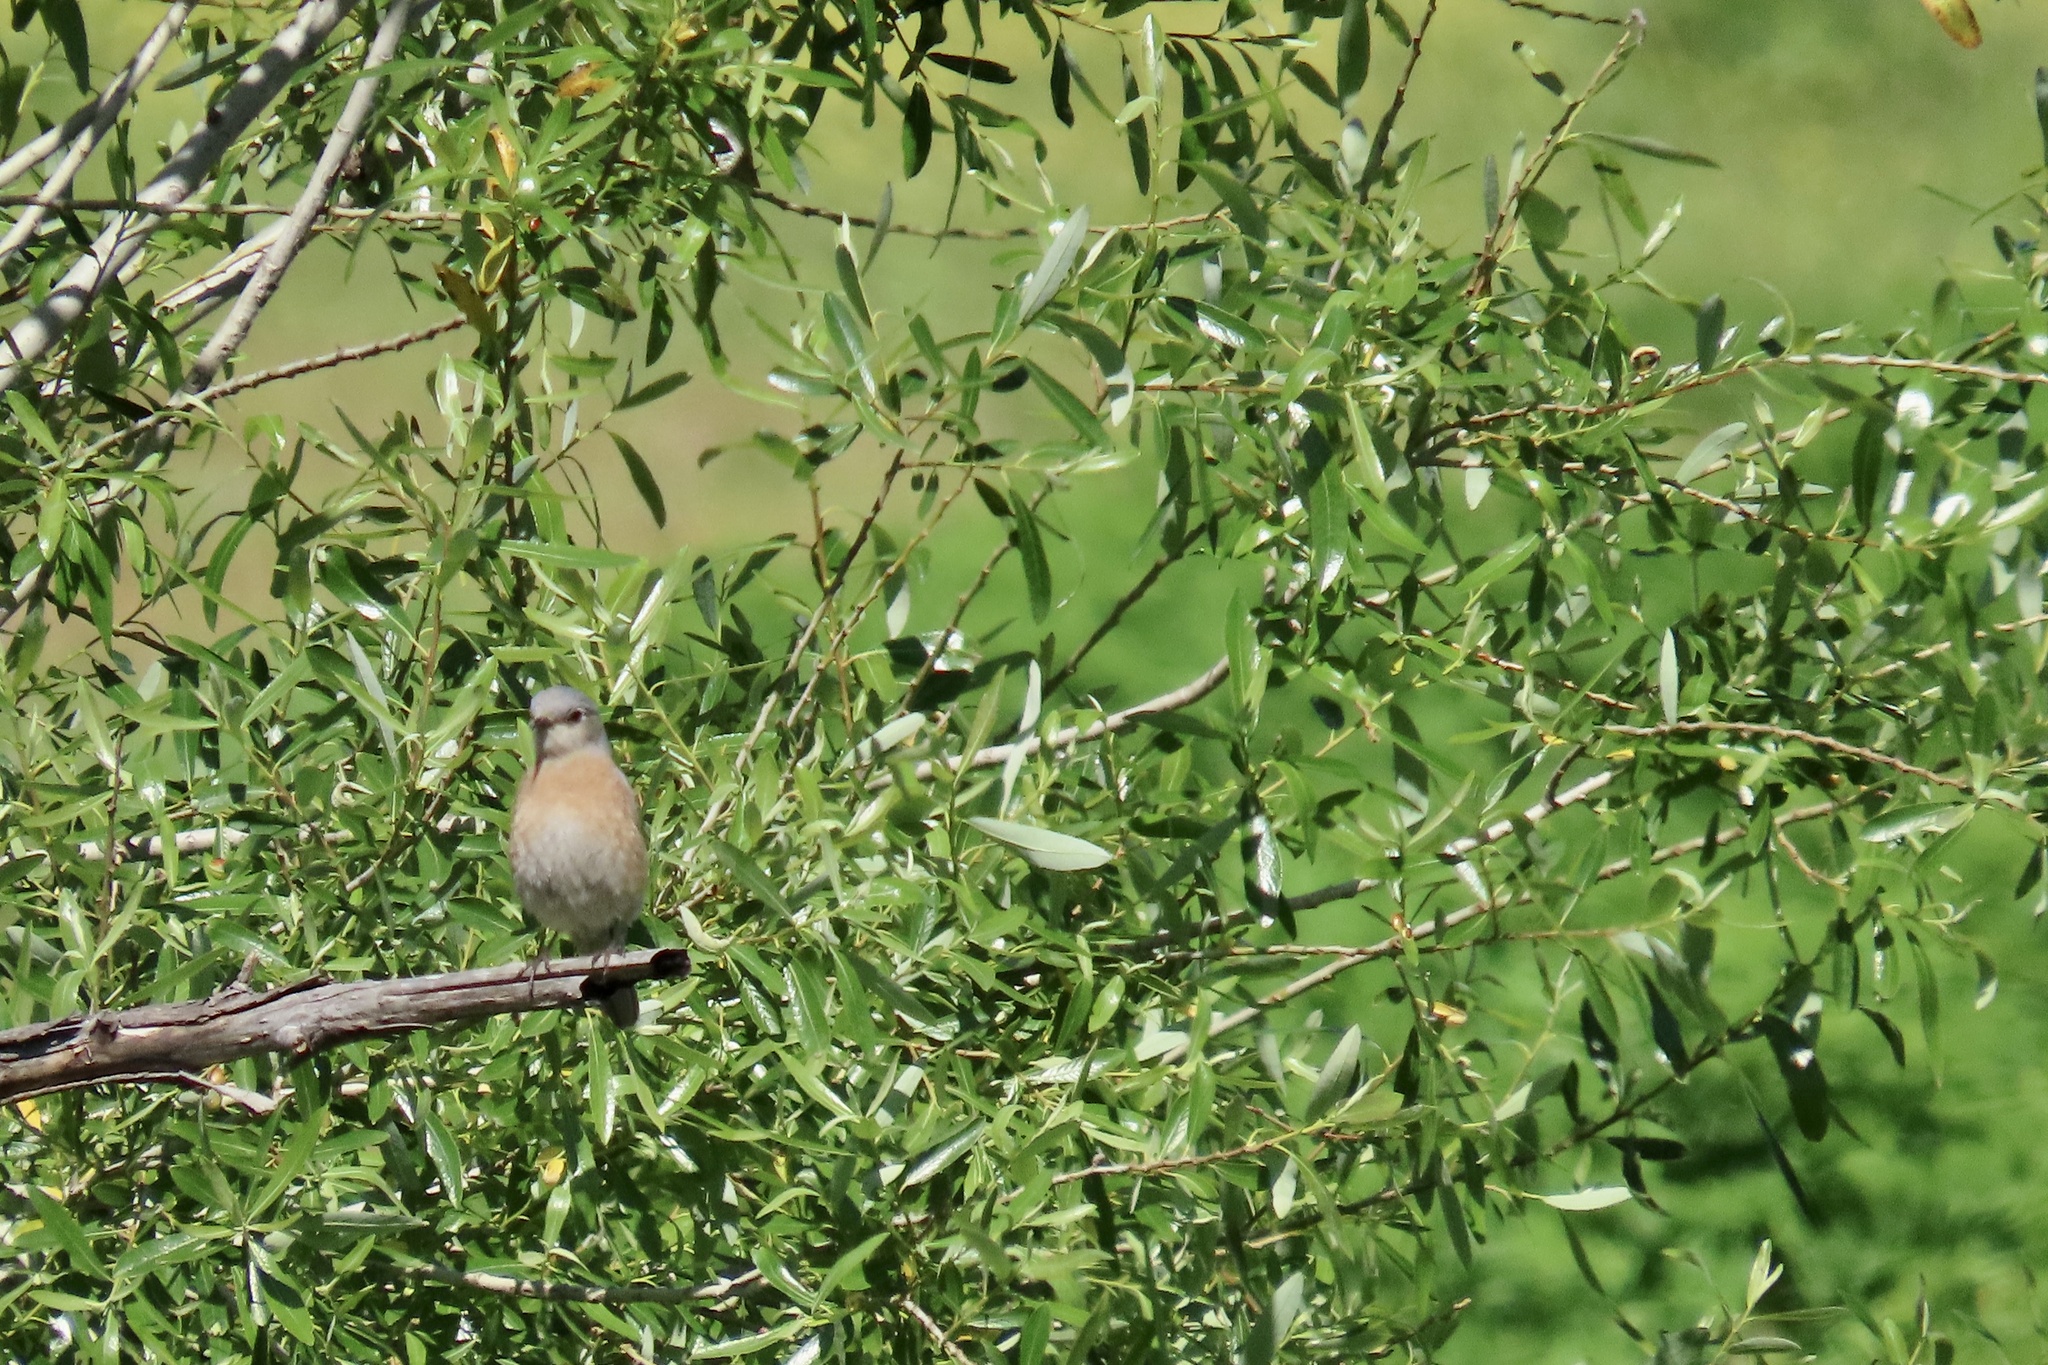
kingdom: Animalia
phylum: Chordata
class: Aves
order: Passeriformes
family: Turdidae
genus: Sialia
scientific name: Sialia mexicana
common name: Western bluebird
